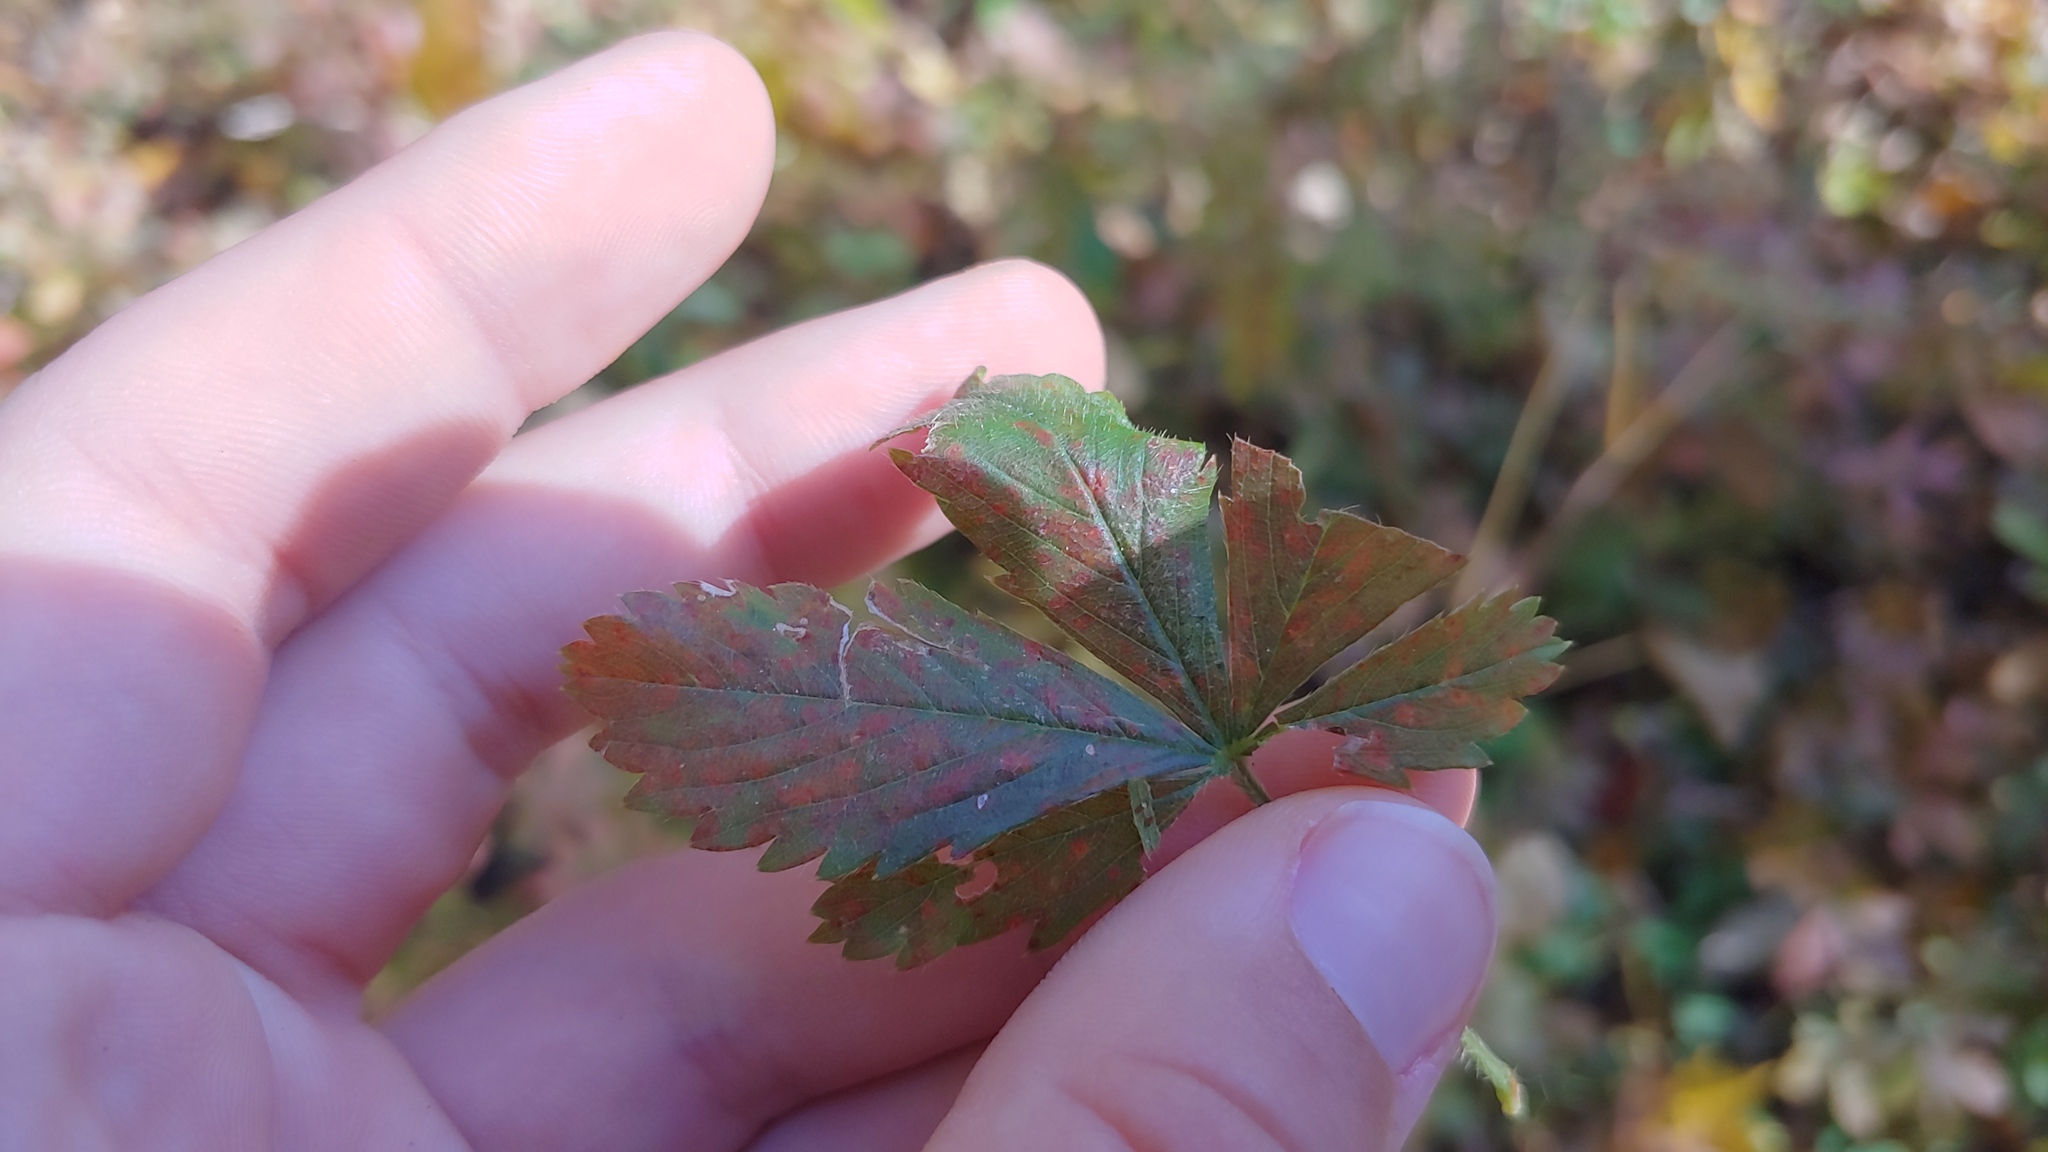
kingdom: Fungi
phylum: Basidiomycota
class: Pucciniomycetes
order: Pucciniales
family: Phragmidiaceae
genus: Phragmidium
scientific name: Phragmidium potentillae
